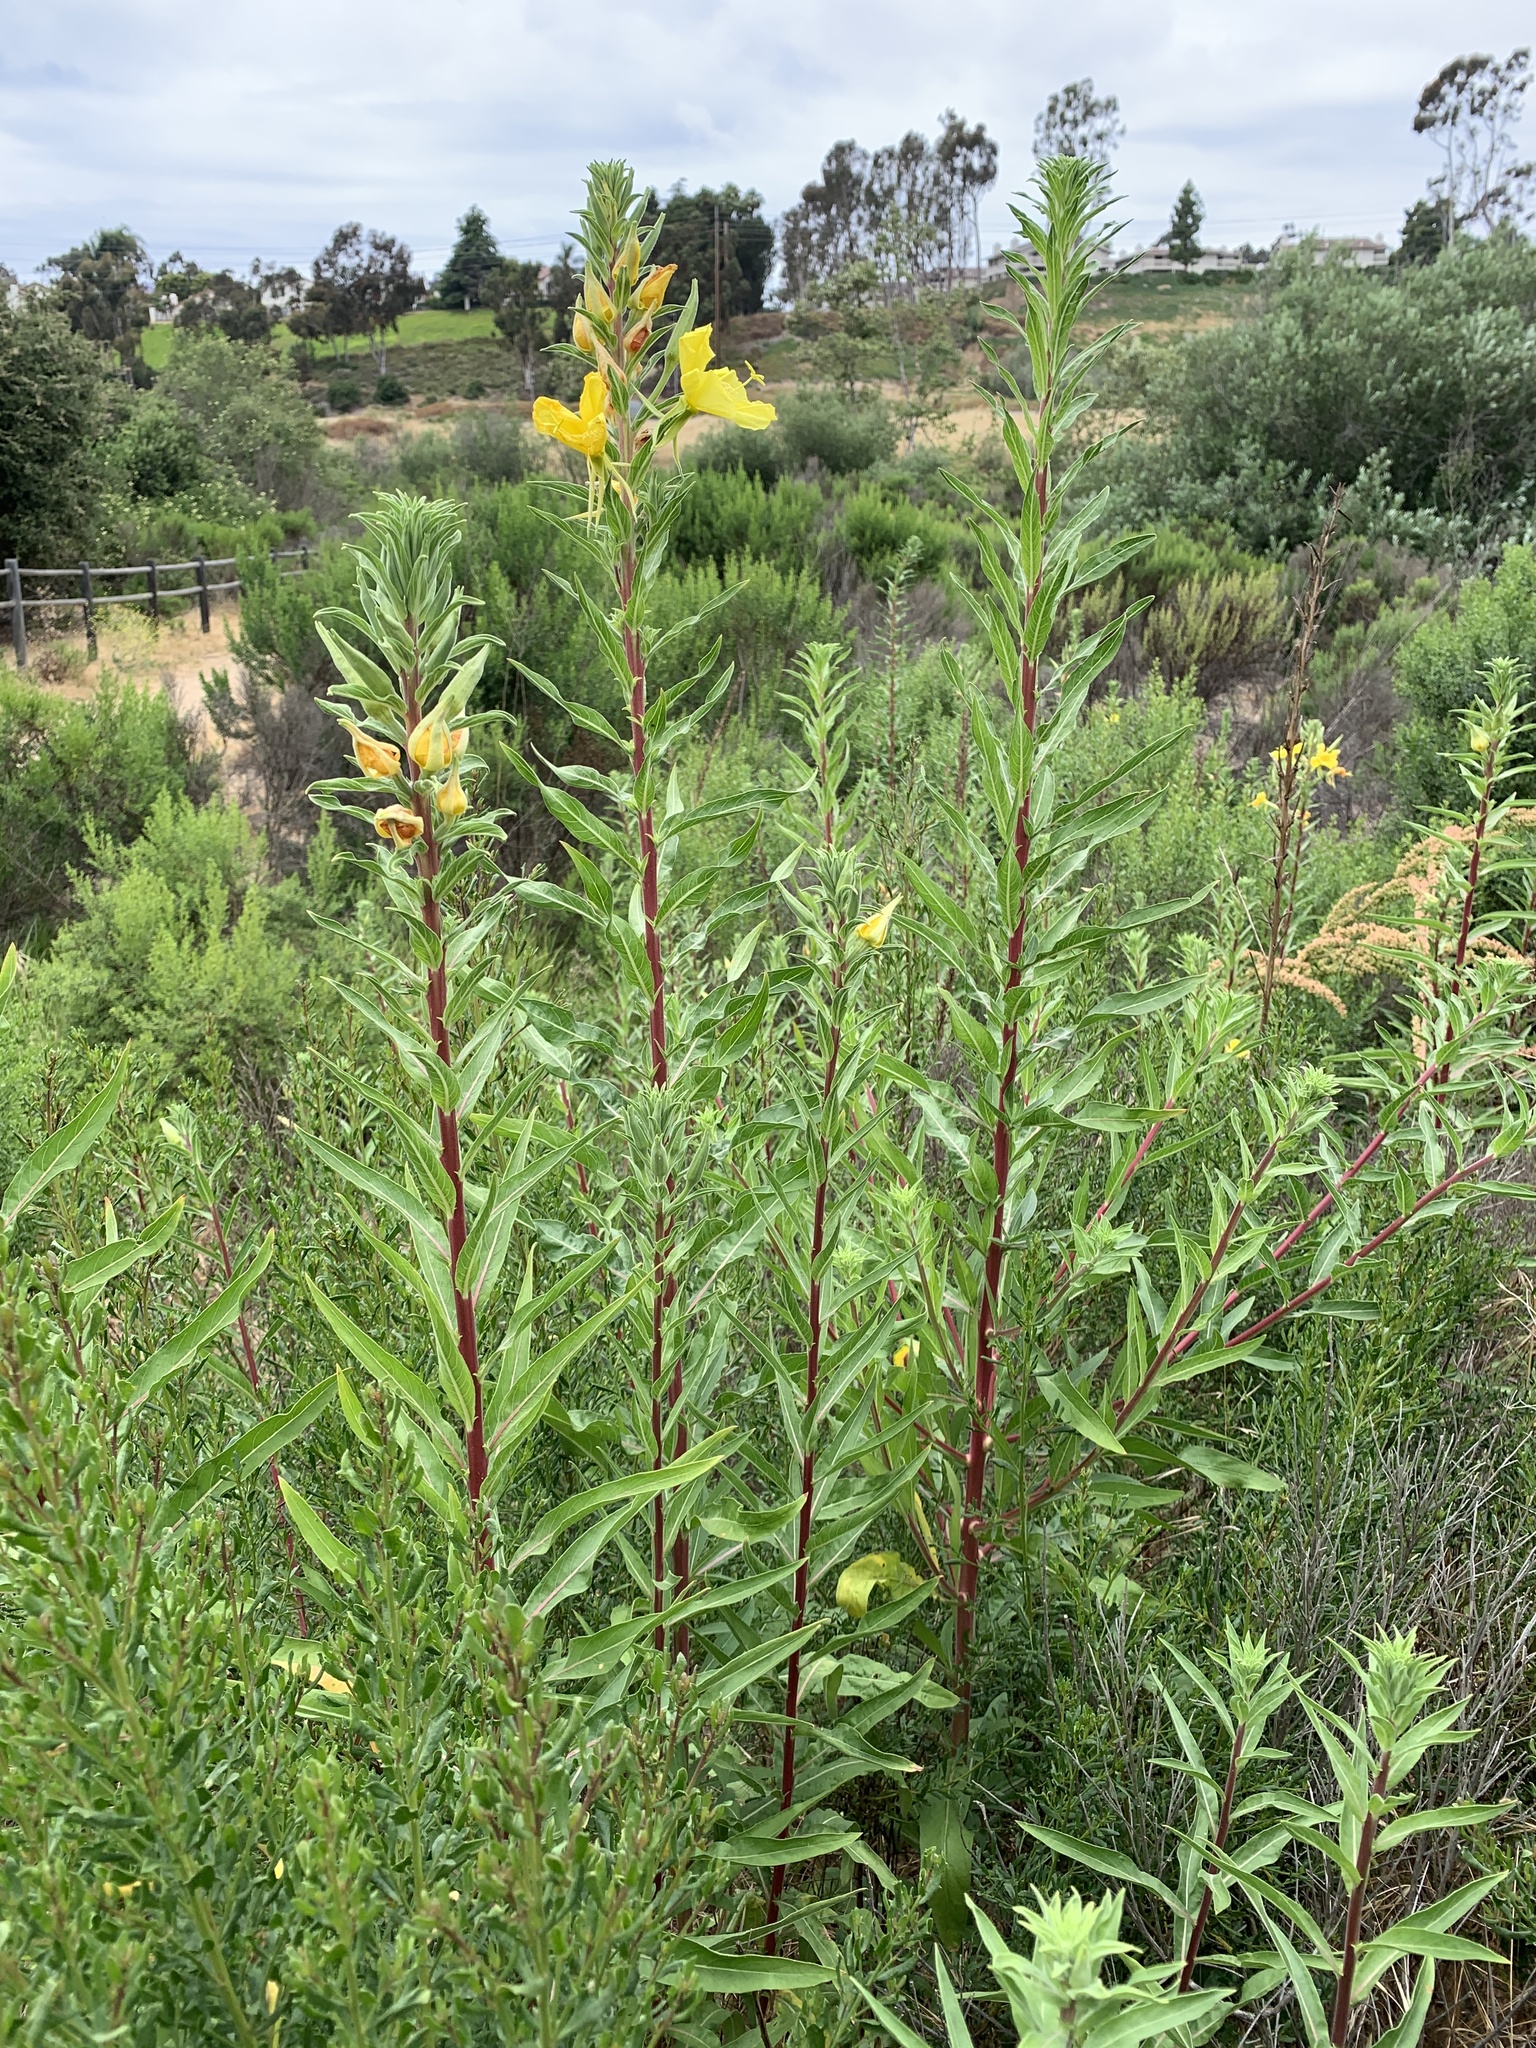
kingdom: Plantae
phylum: Tracheophyta
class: Magnoliopsida
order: Myrtales
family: Onagraceae
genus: Oenothera
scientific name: Oenothera elata
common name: Hooker's evening-primrose
